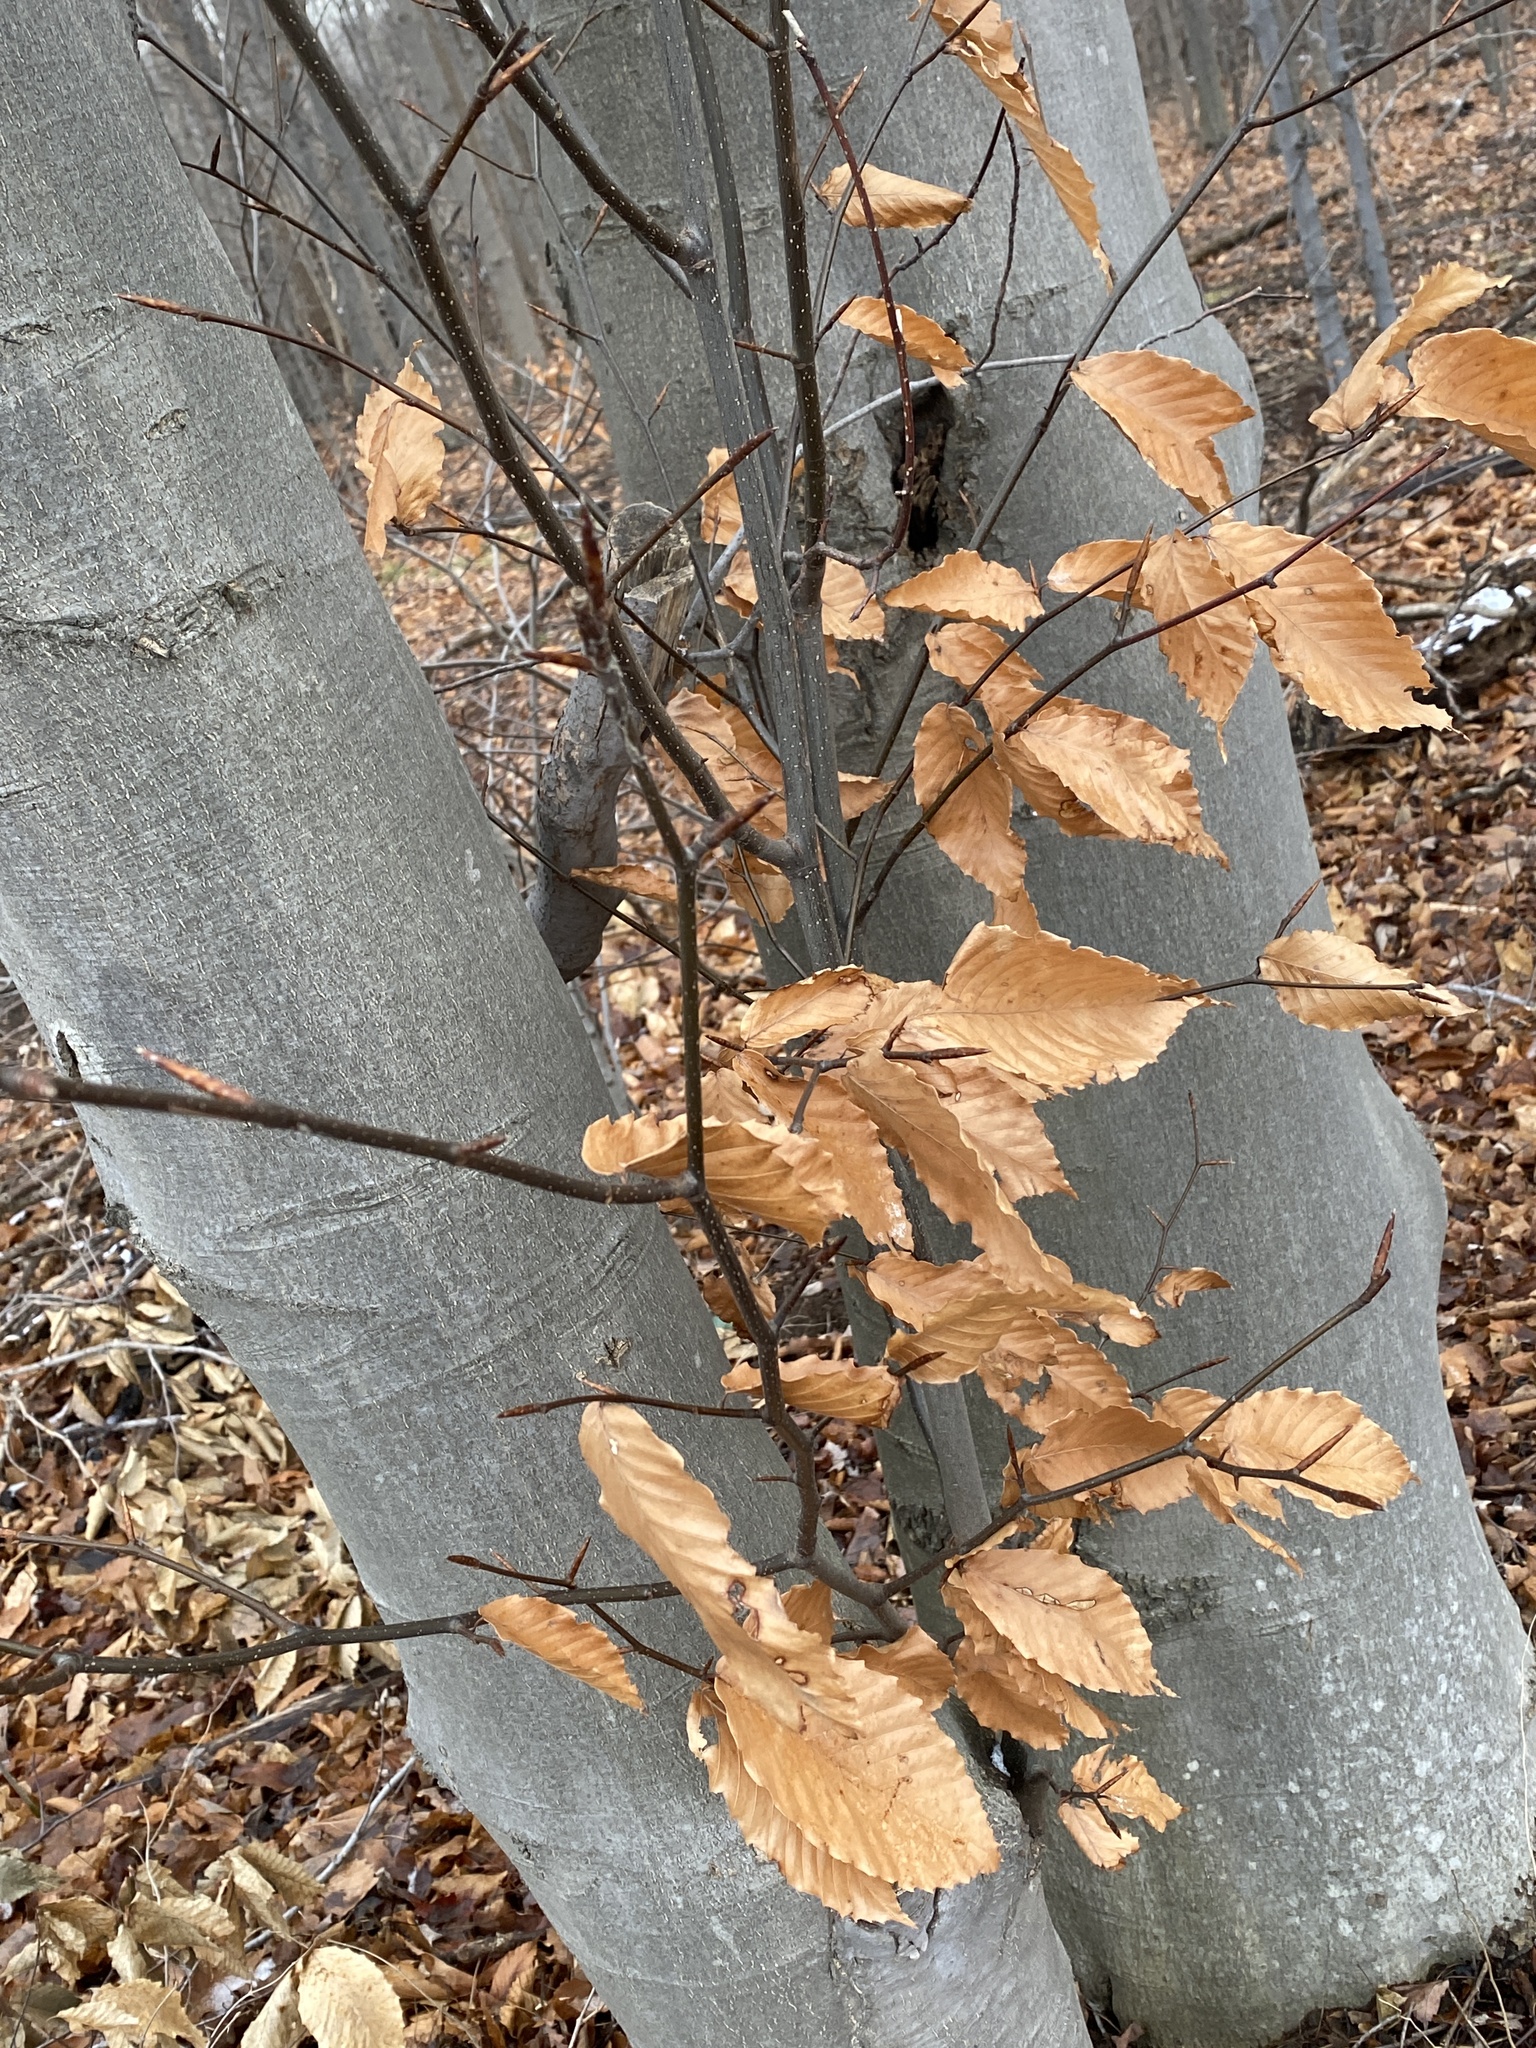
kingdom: Plantae
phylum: Tracheophyta
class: Magnoliopsida
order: Fagales
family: Fagaceae
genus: Fagus
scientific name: Fagus grandifolia
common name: American beech
